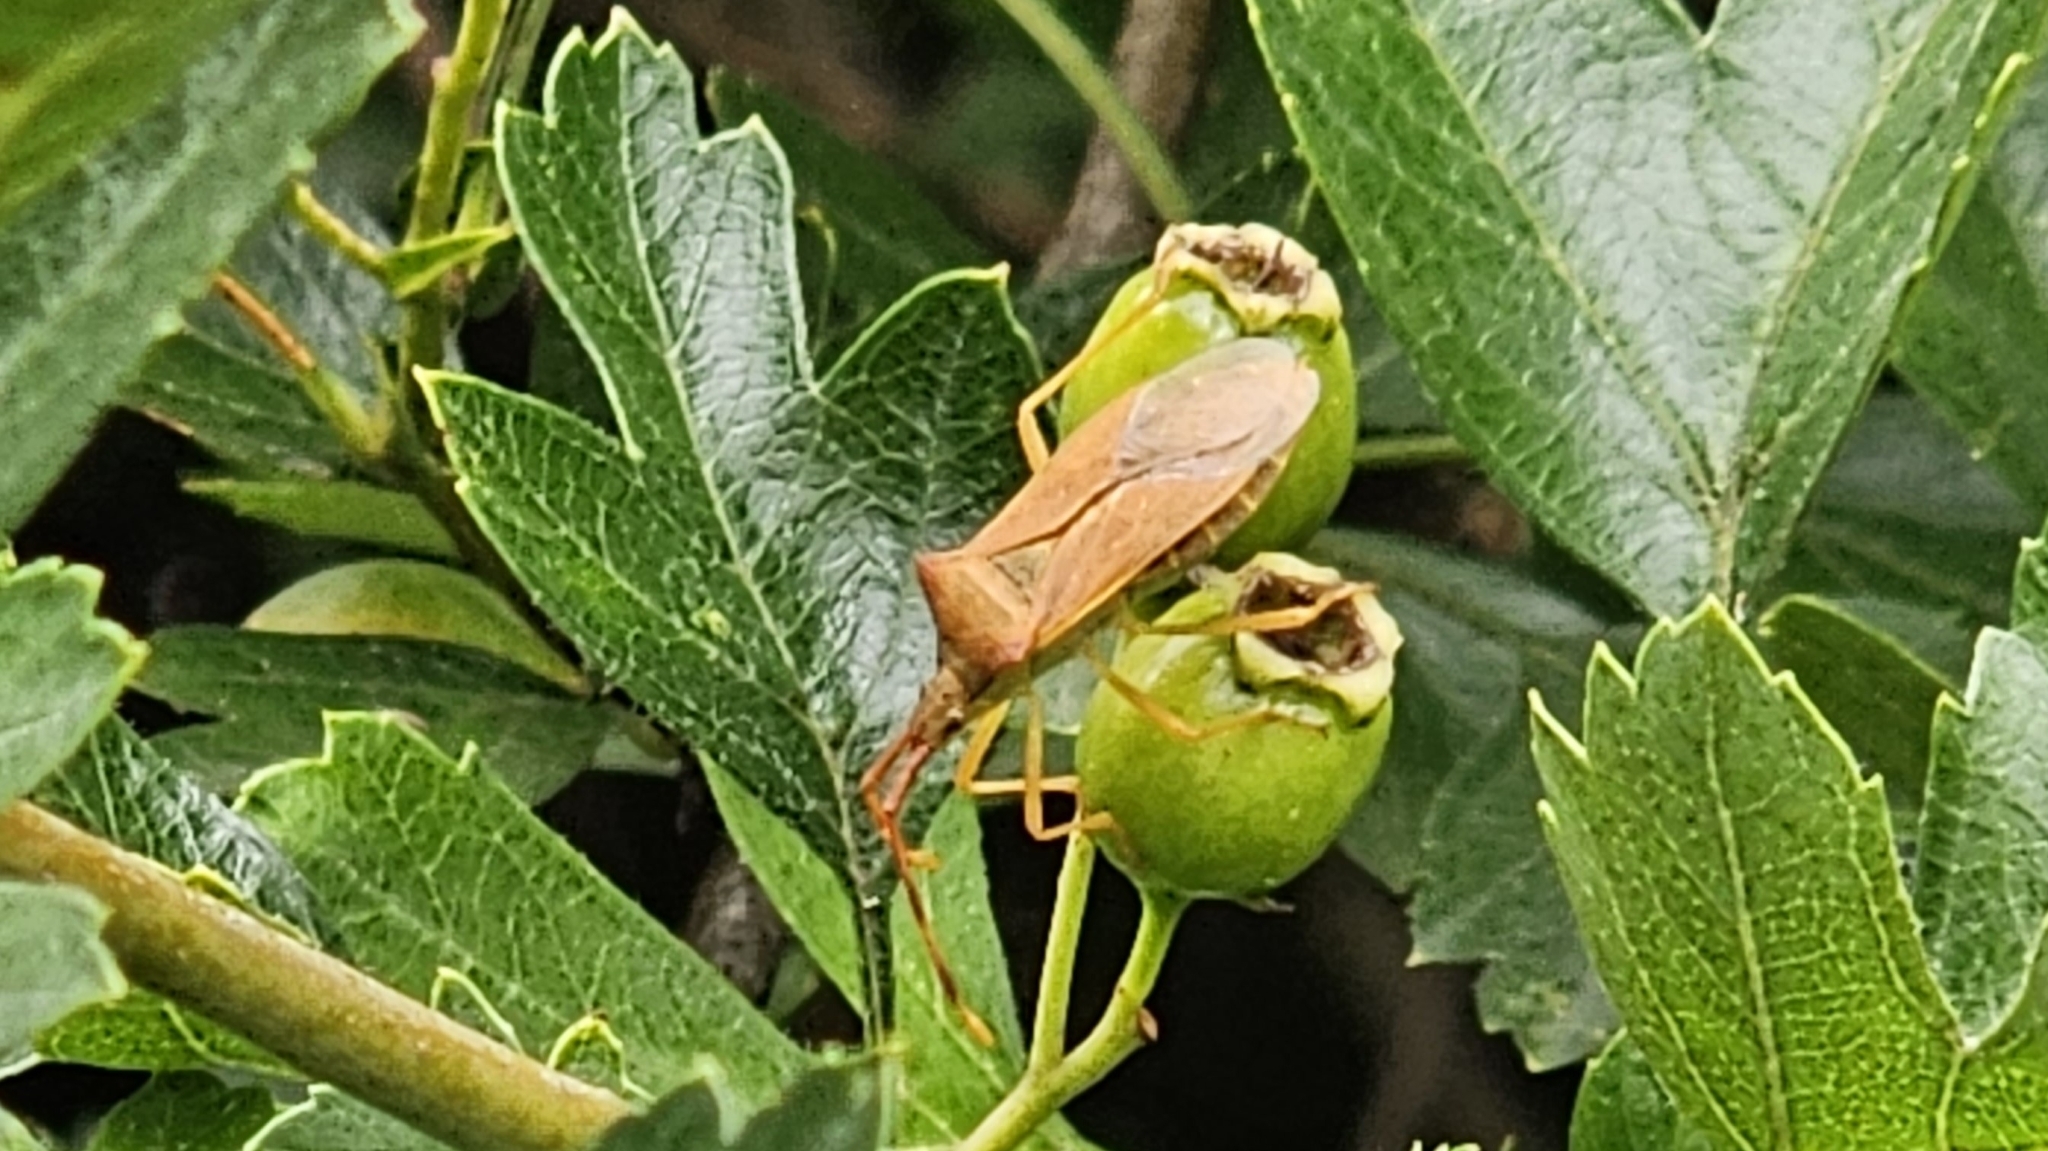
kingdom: Animalia
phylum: Arthropoda
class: Insecta
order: Hemiptera
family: Coreidae
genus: Gonocerus
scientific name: Gonocerus acuteangulatus
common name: Box bug
